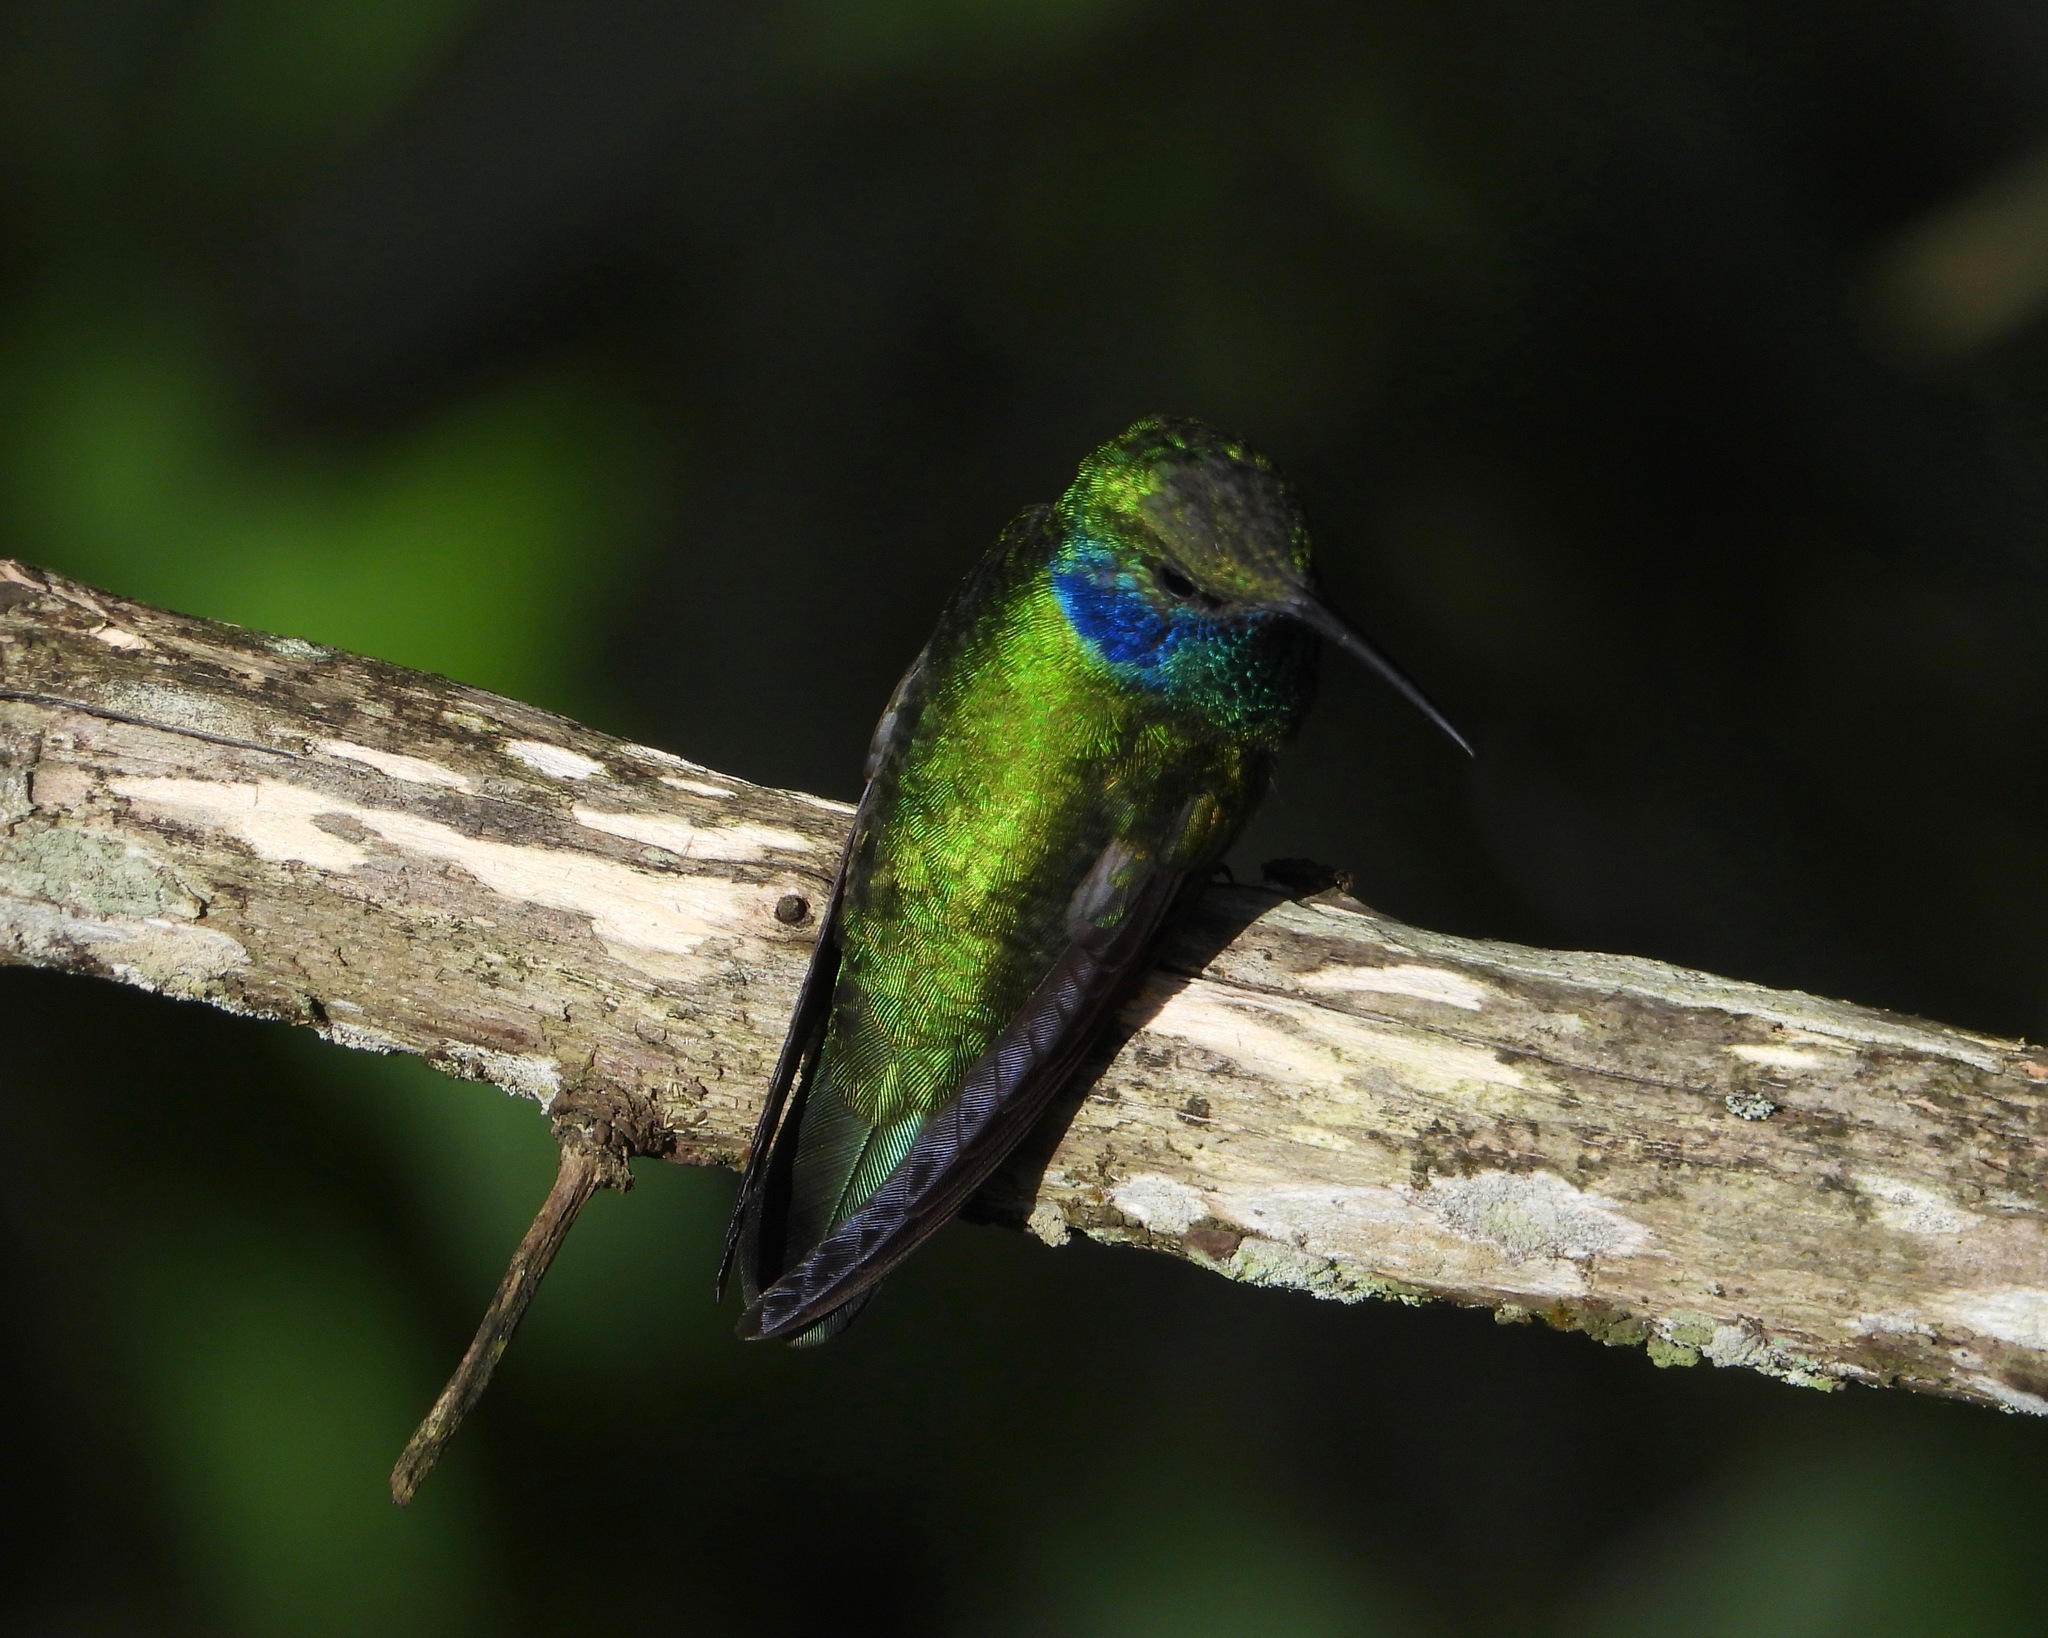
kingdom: Animalia
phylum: Chordata
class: Aves
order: Apodiformes
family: Trochilidae
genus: Colibri
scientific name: Colibri thalassinus
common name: Green violetear
